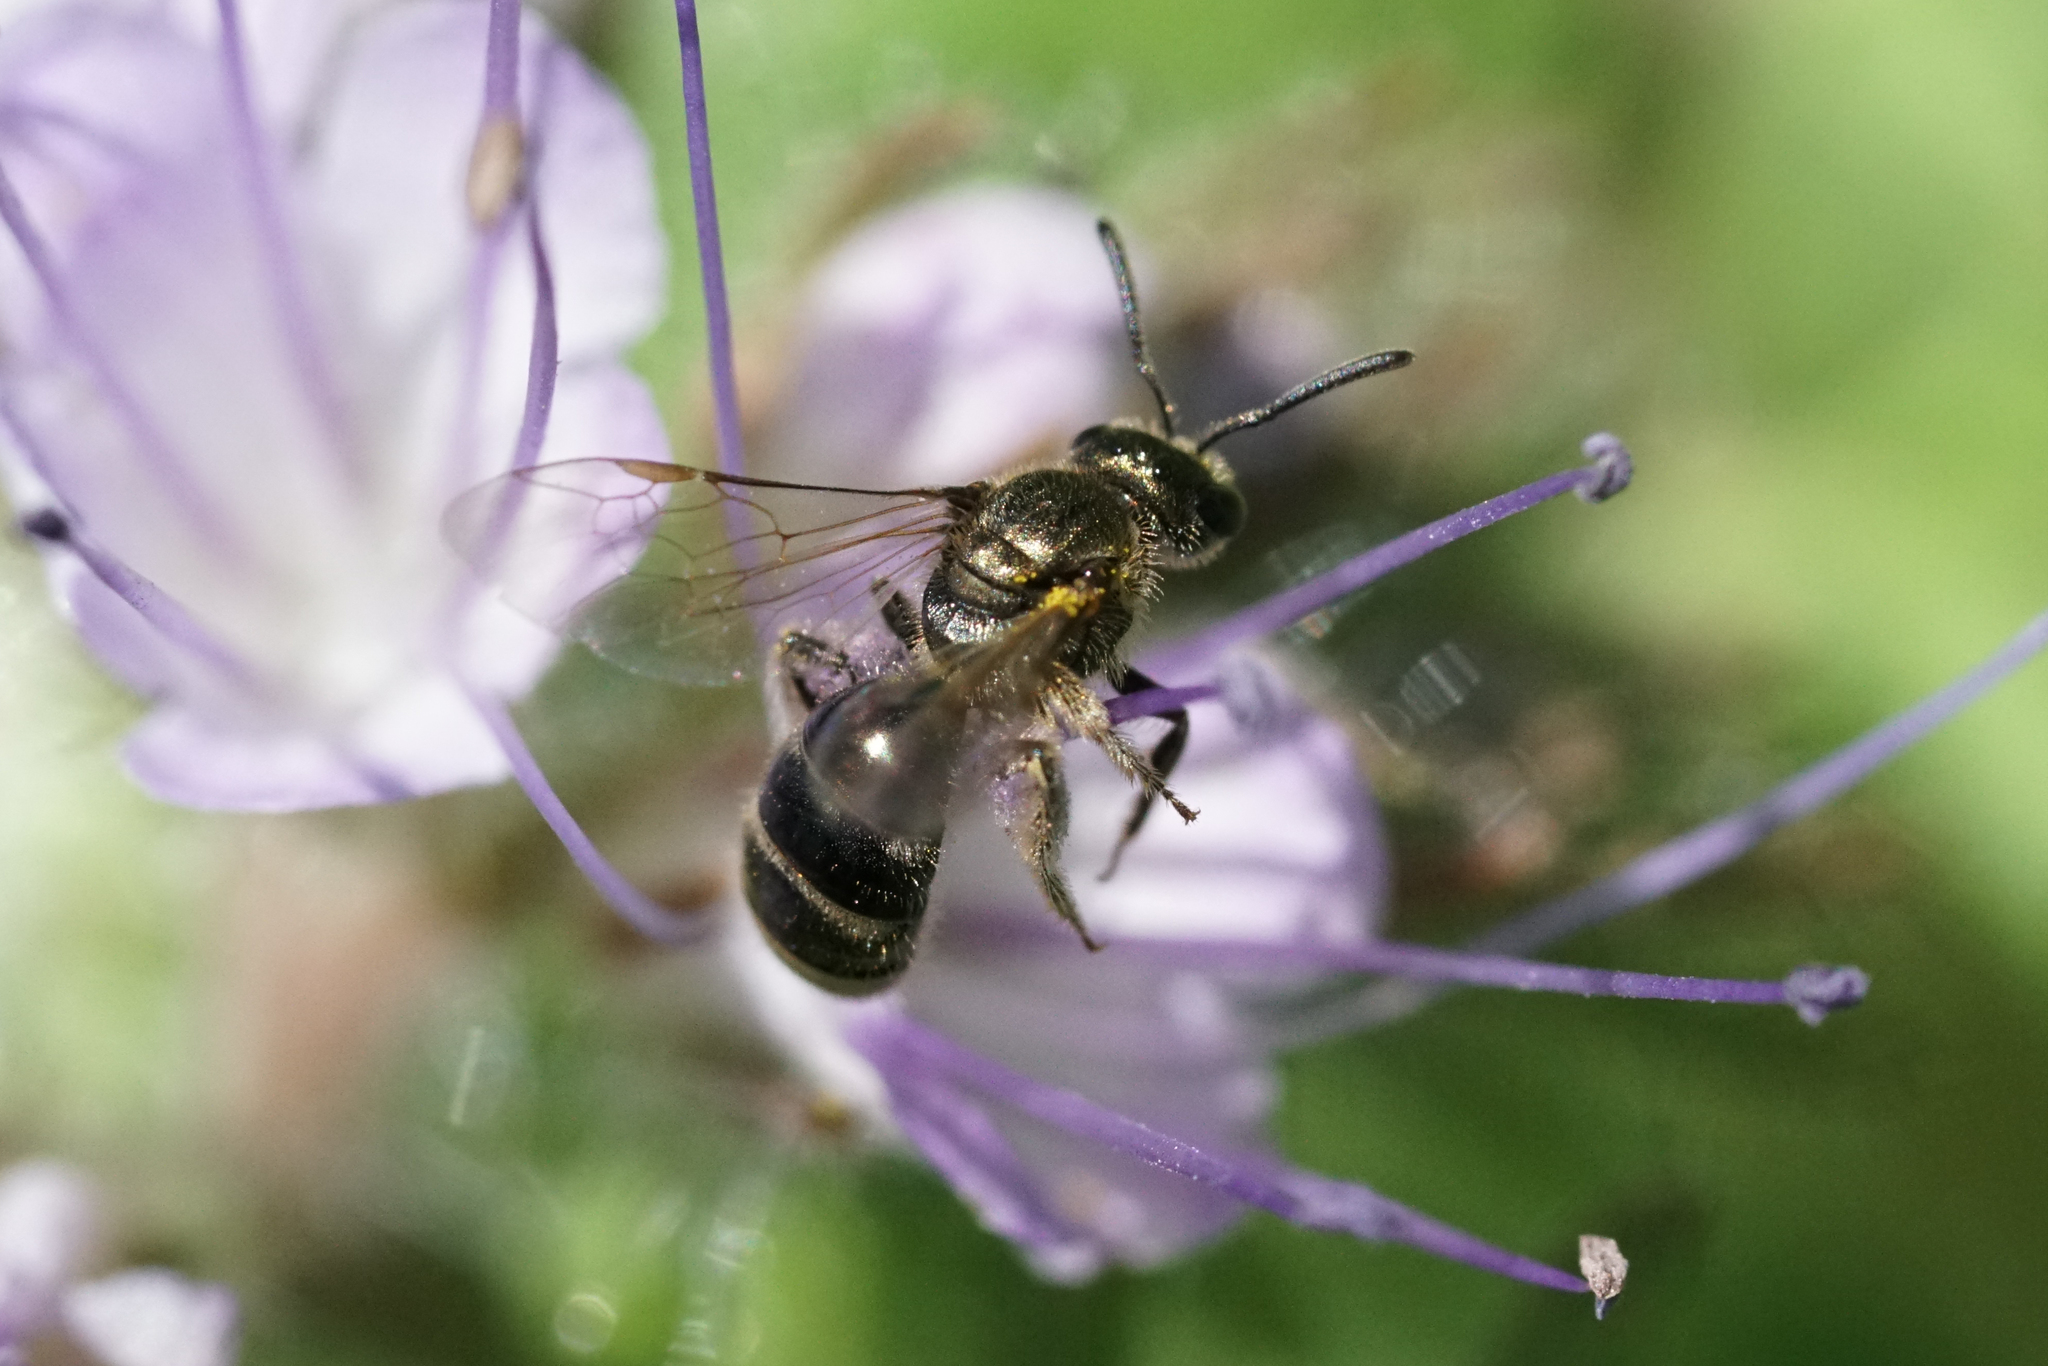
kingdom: Animalia
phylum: Arthropoda
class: Insecta
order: Hymenoptera
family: Halictidae
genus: Dialictus
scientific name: Dialictus
